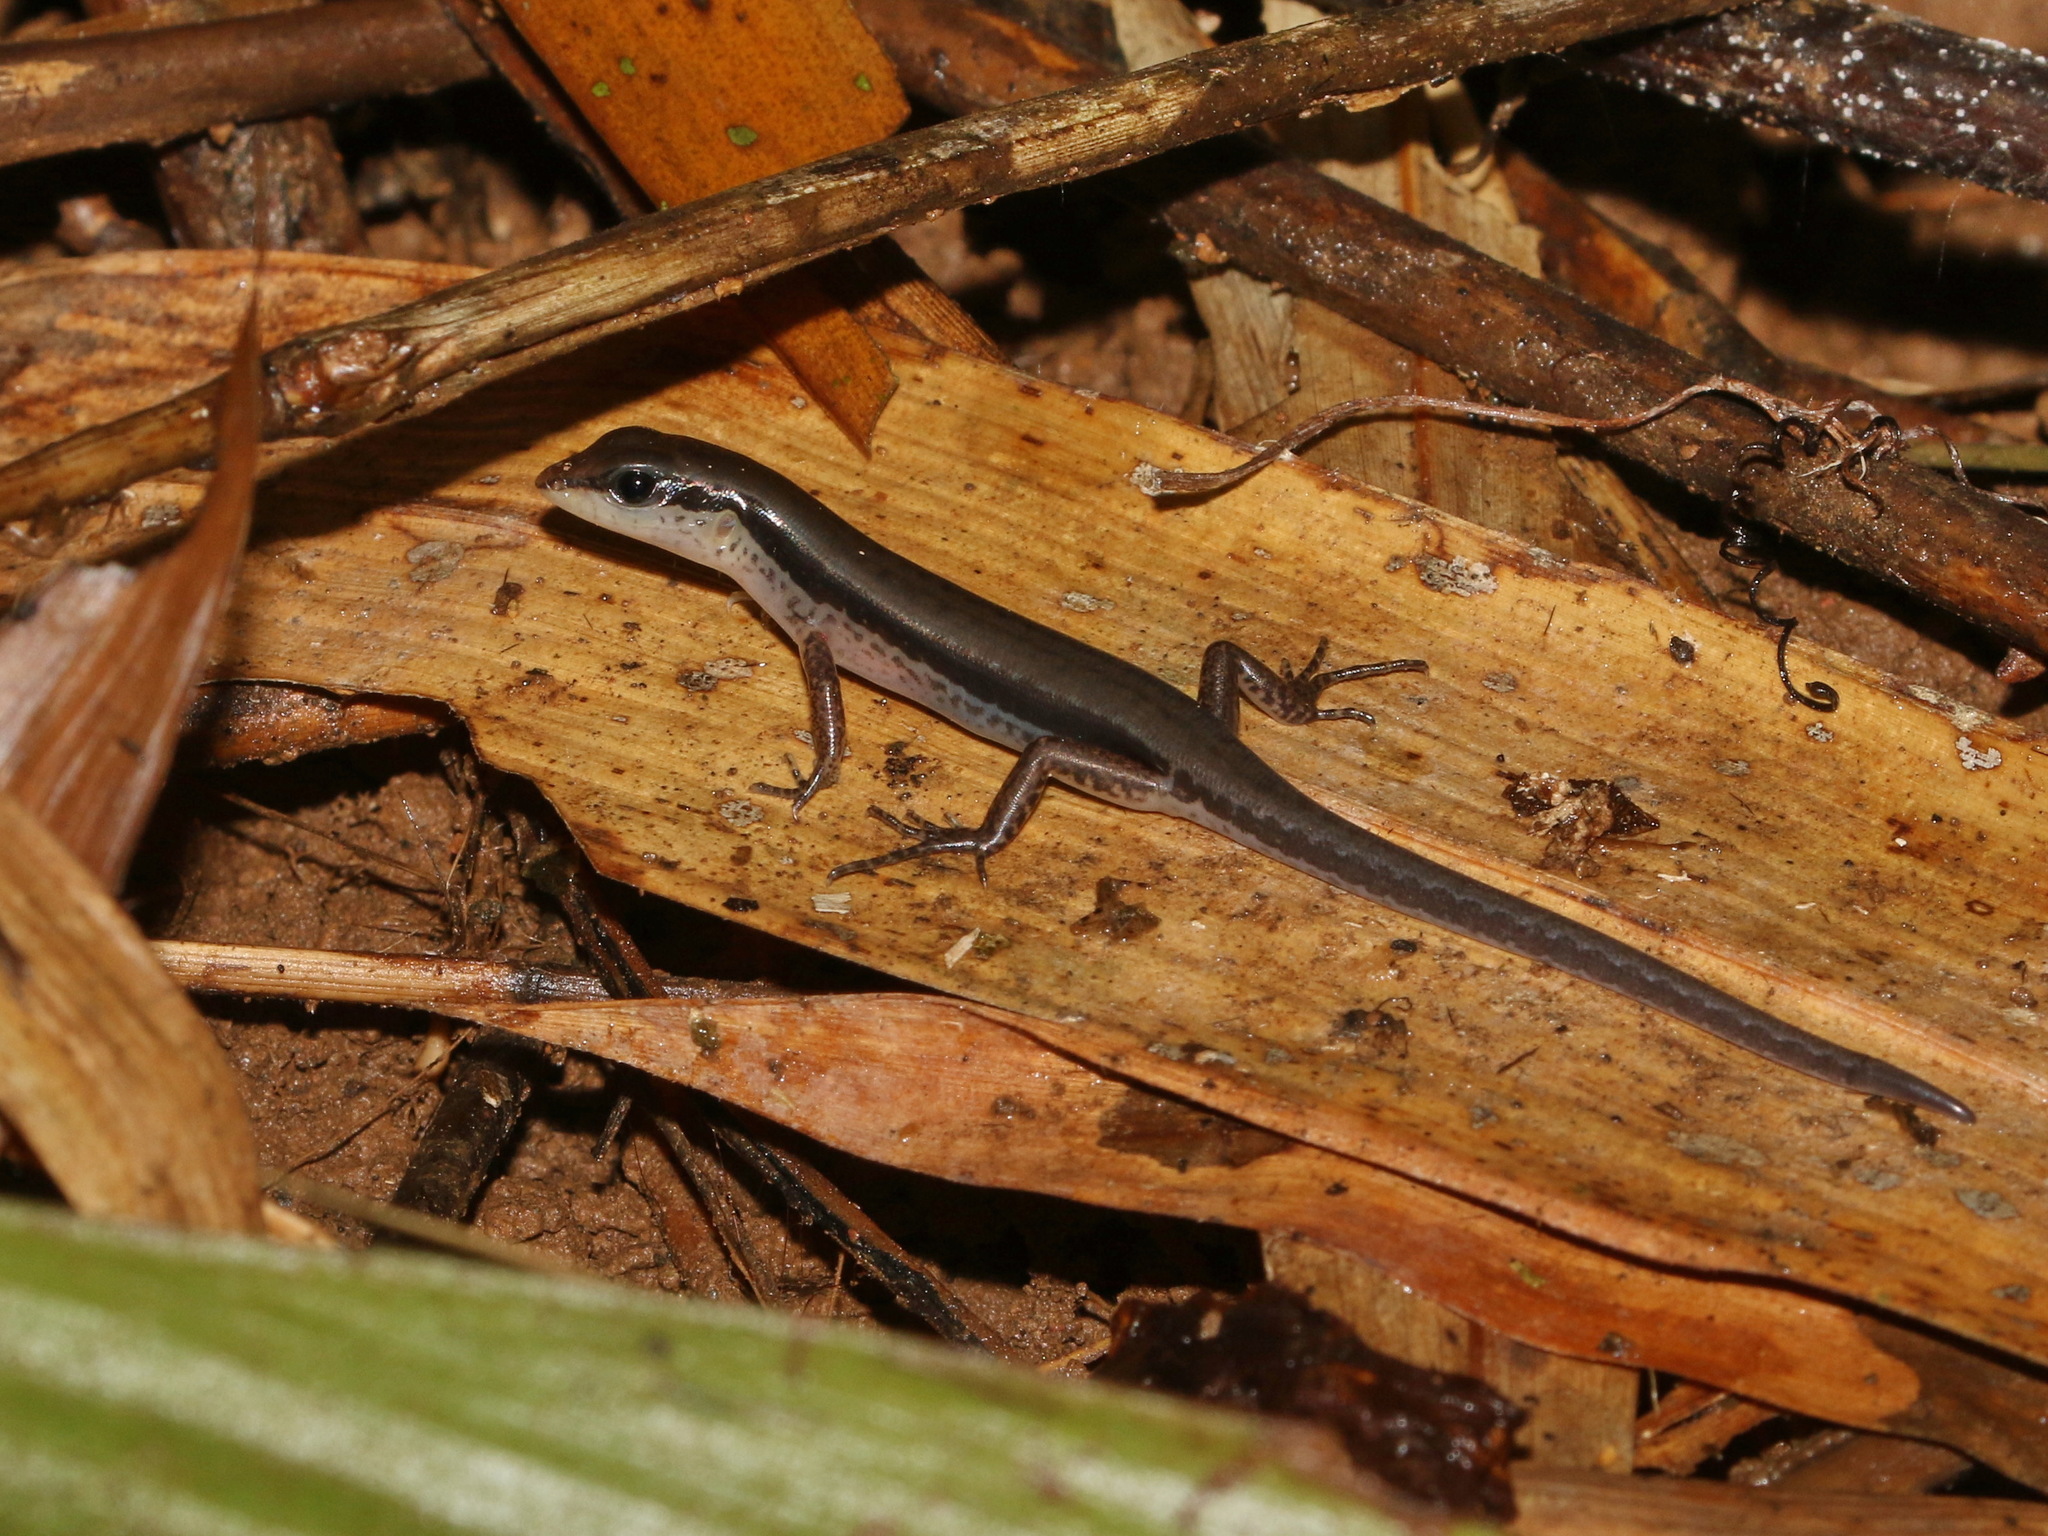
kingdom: Animalia
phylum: Chordata
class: Squamata
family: Scincidae
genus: Sphenomorphus
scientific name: Sphenomorphus maculatus
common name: Maculated forest skink
